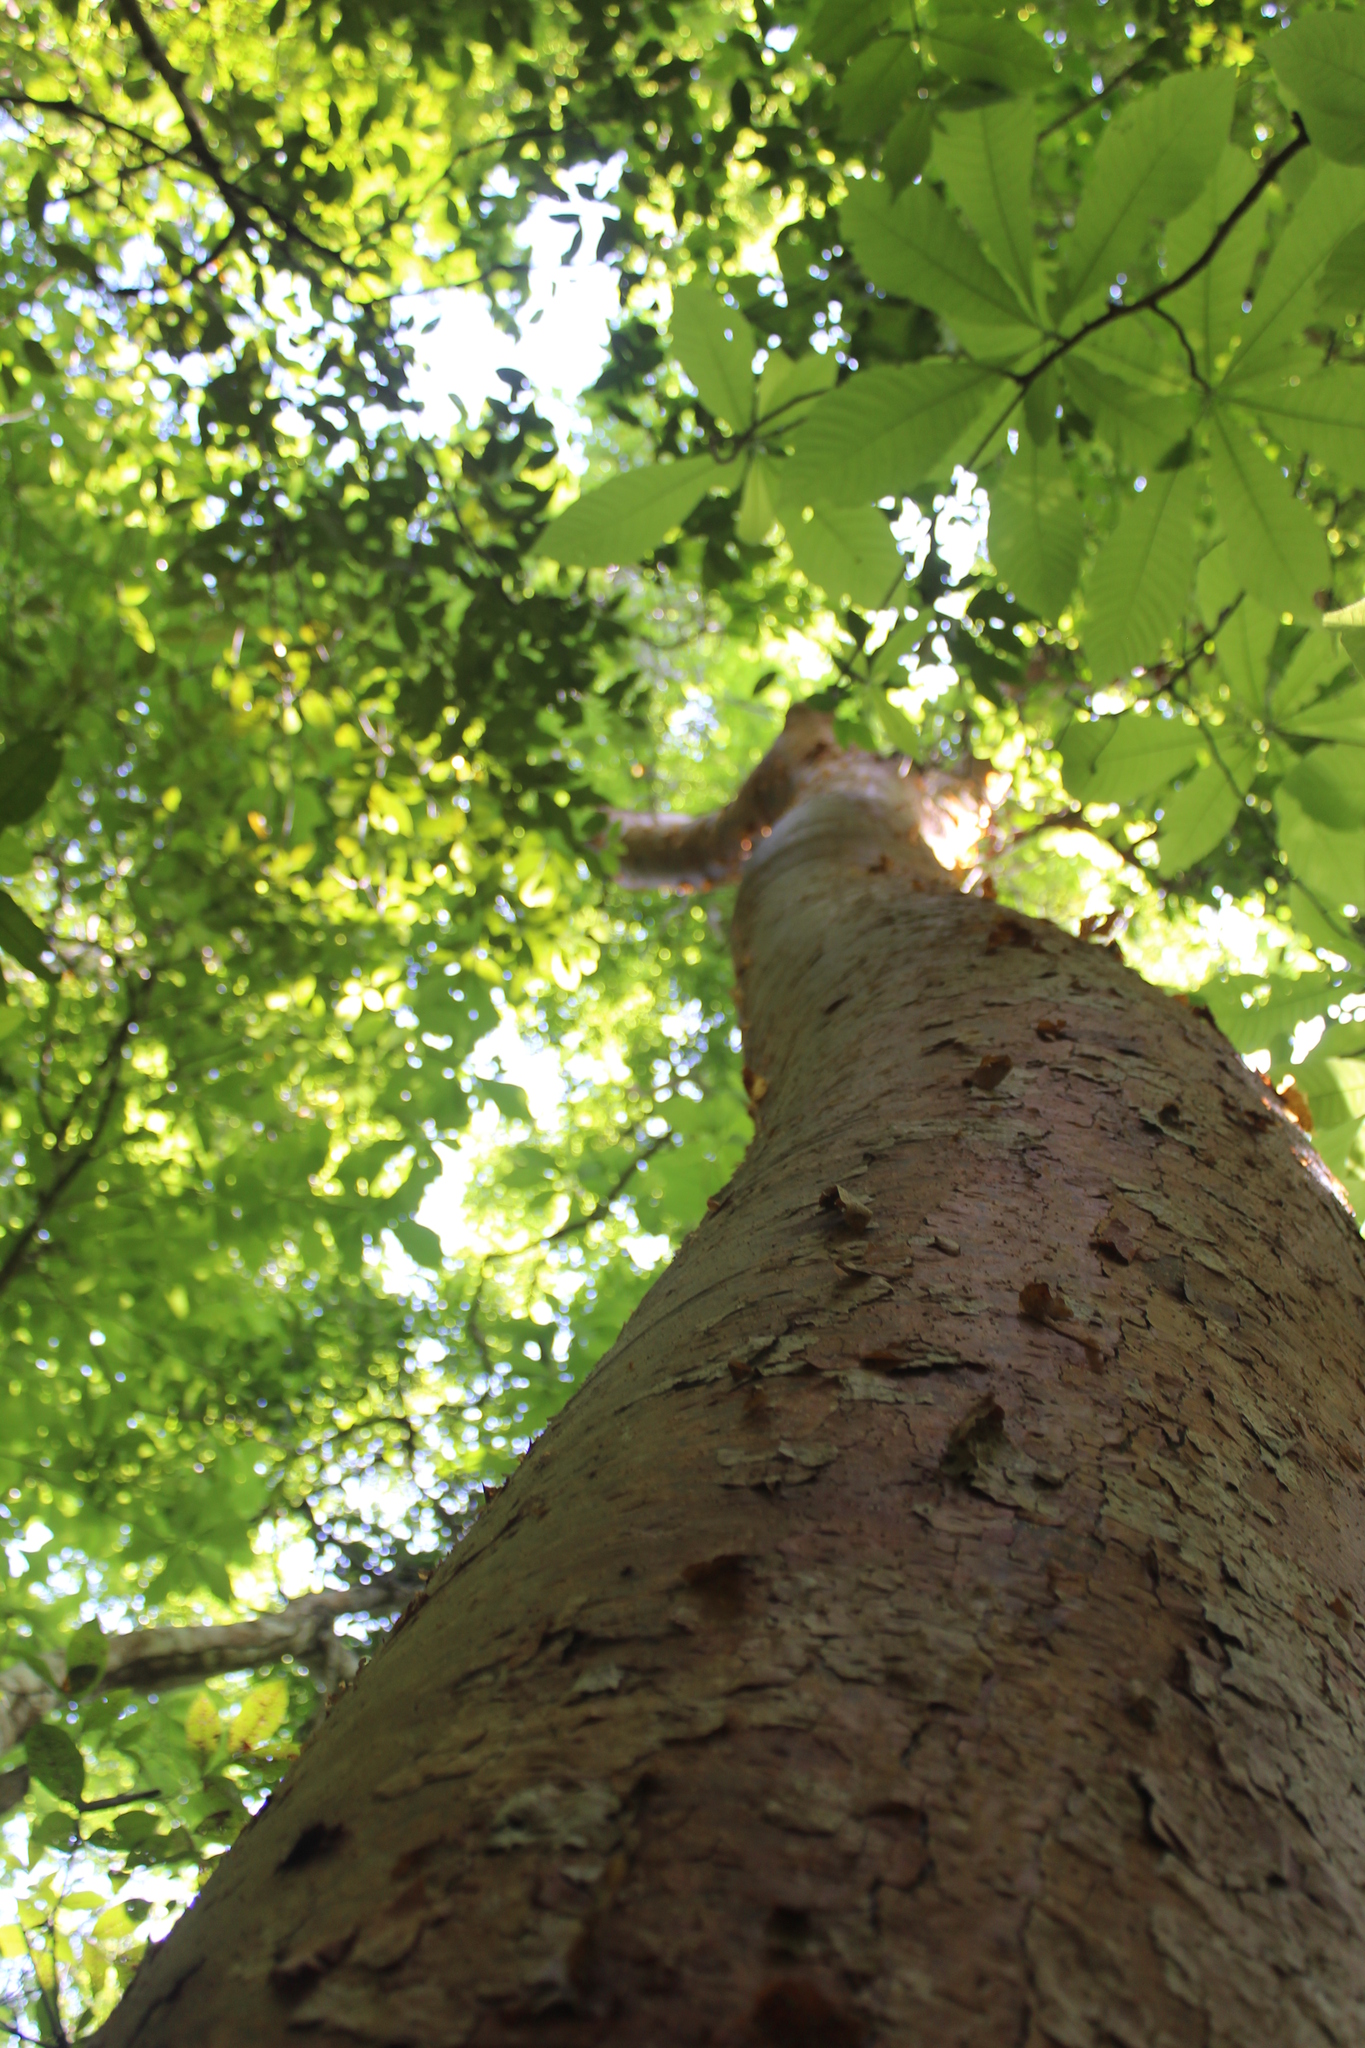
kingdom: Plantae
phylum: Tracheophyta
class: Magnoliopsida
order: Sapindales
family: Burseraceae
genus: Bursera
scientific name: Bursera simaruba
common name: Turpentine tree
